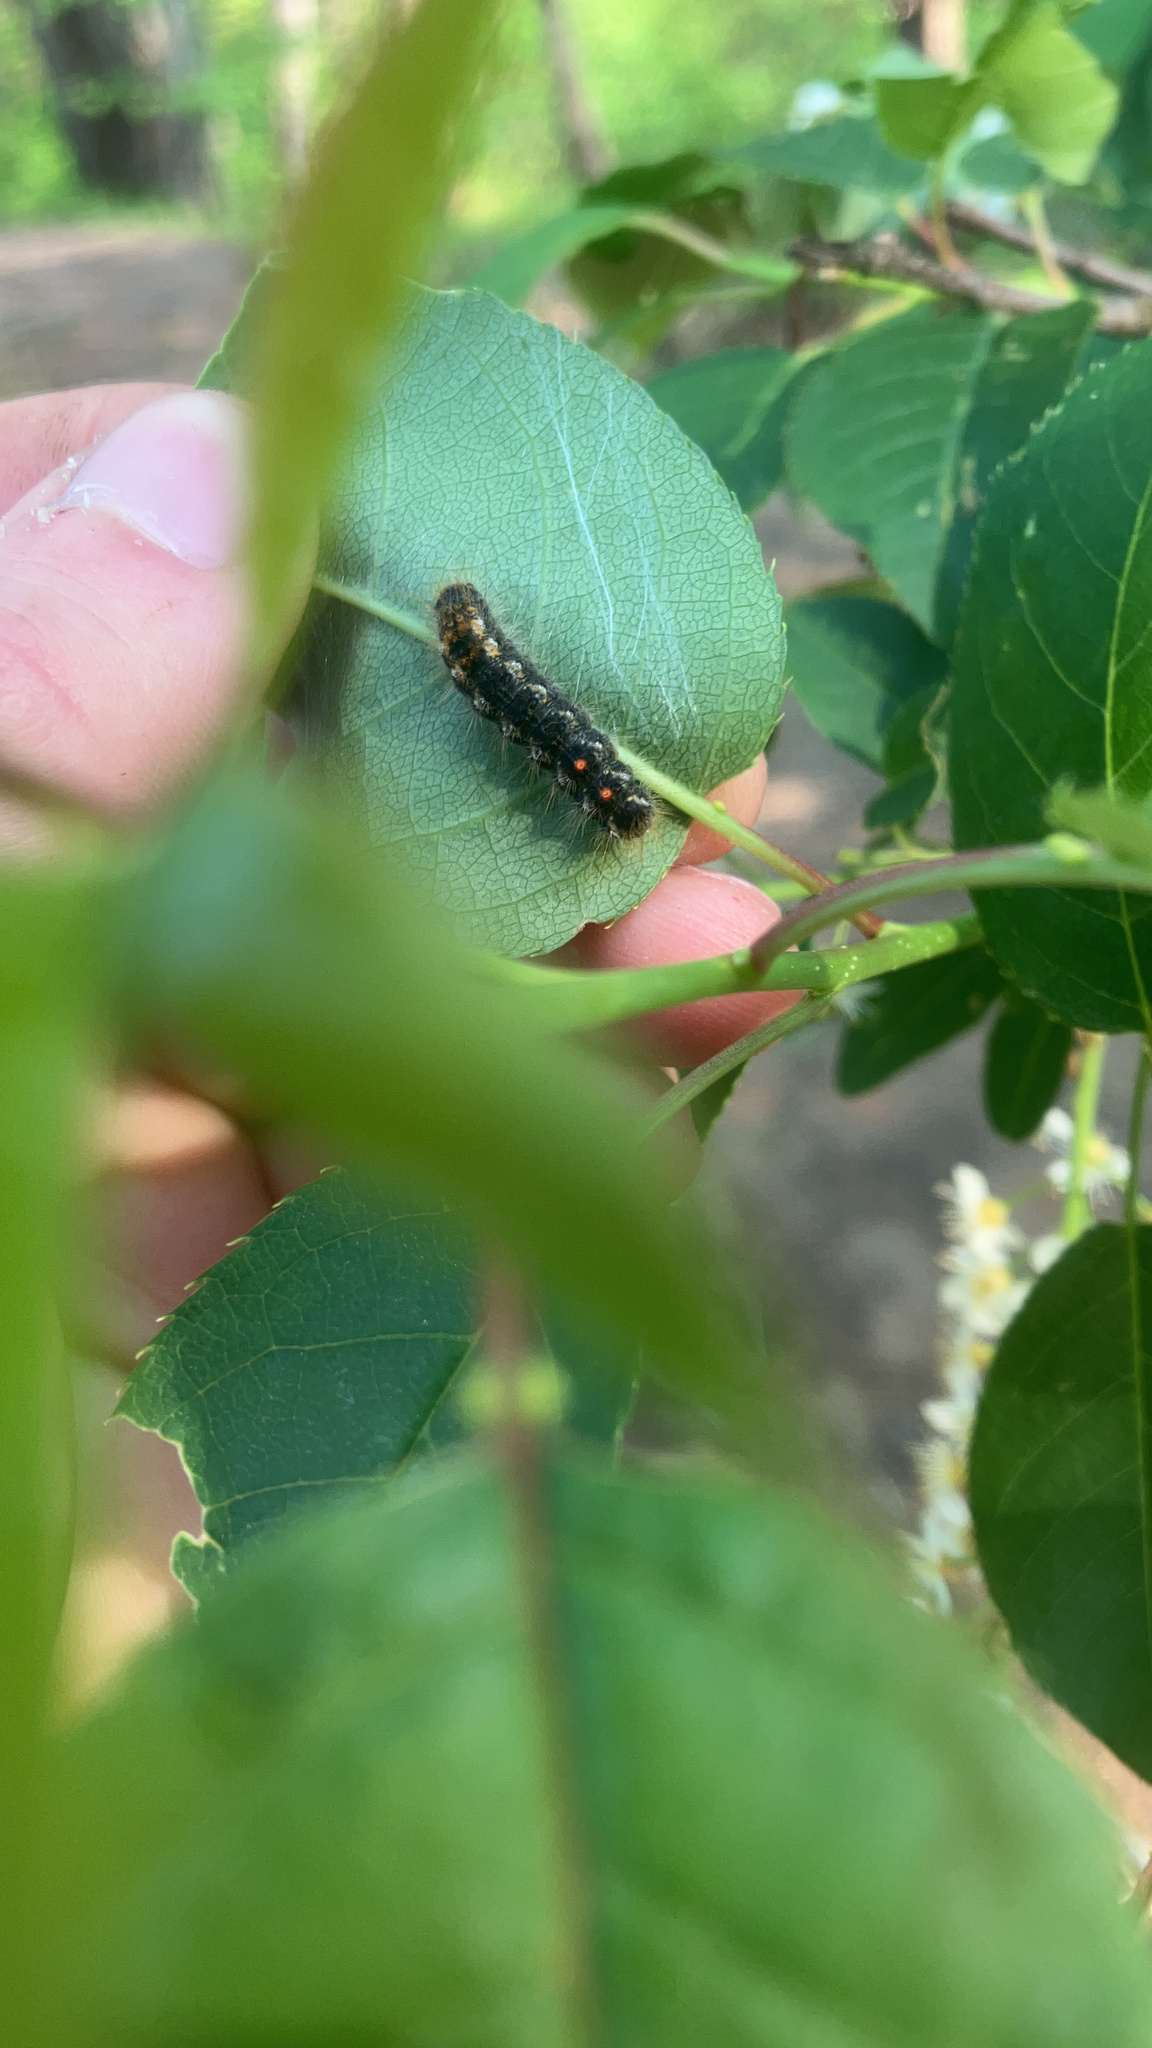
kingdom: Animalia
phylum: Arthropoda
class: Insecta
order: Lepidoptera
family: Erebidae
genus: Euproctis
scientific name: Euproctis chrysorrhoea
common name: Brown-tail
